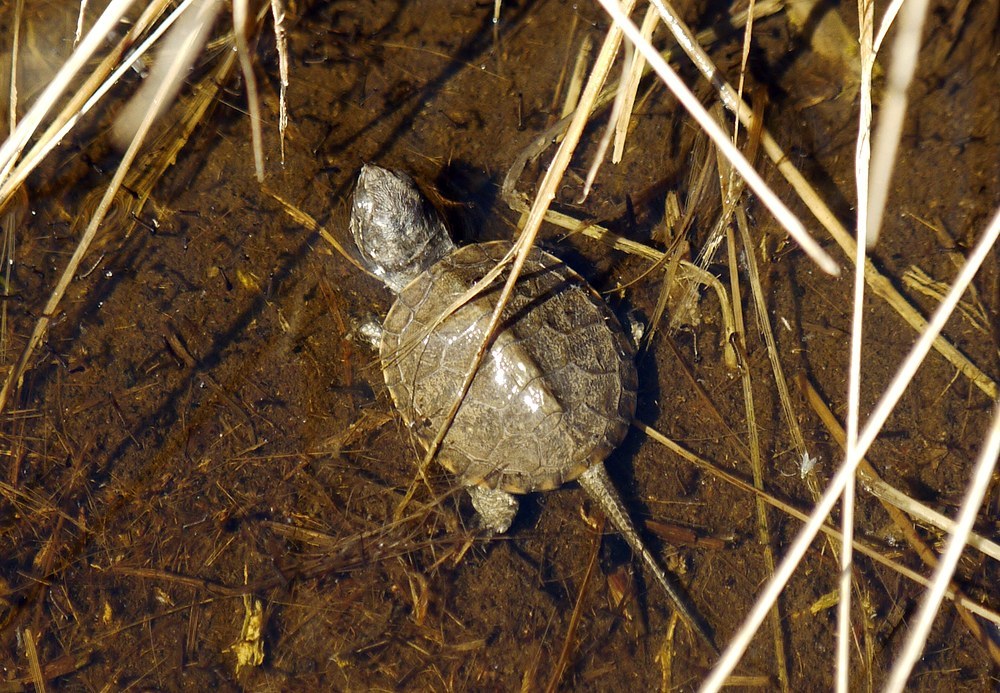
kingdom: Animalia
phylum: Chordata
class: Testudines
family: Emydidae
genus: Emys
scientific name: Emys orbicularis
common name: European pond turtle
